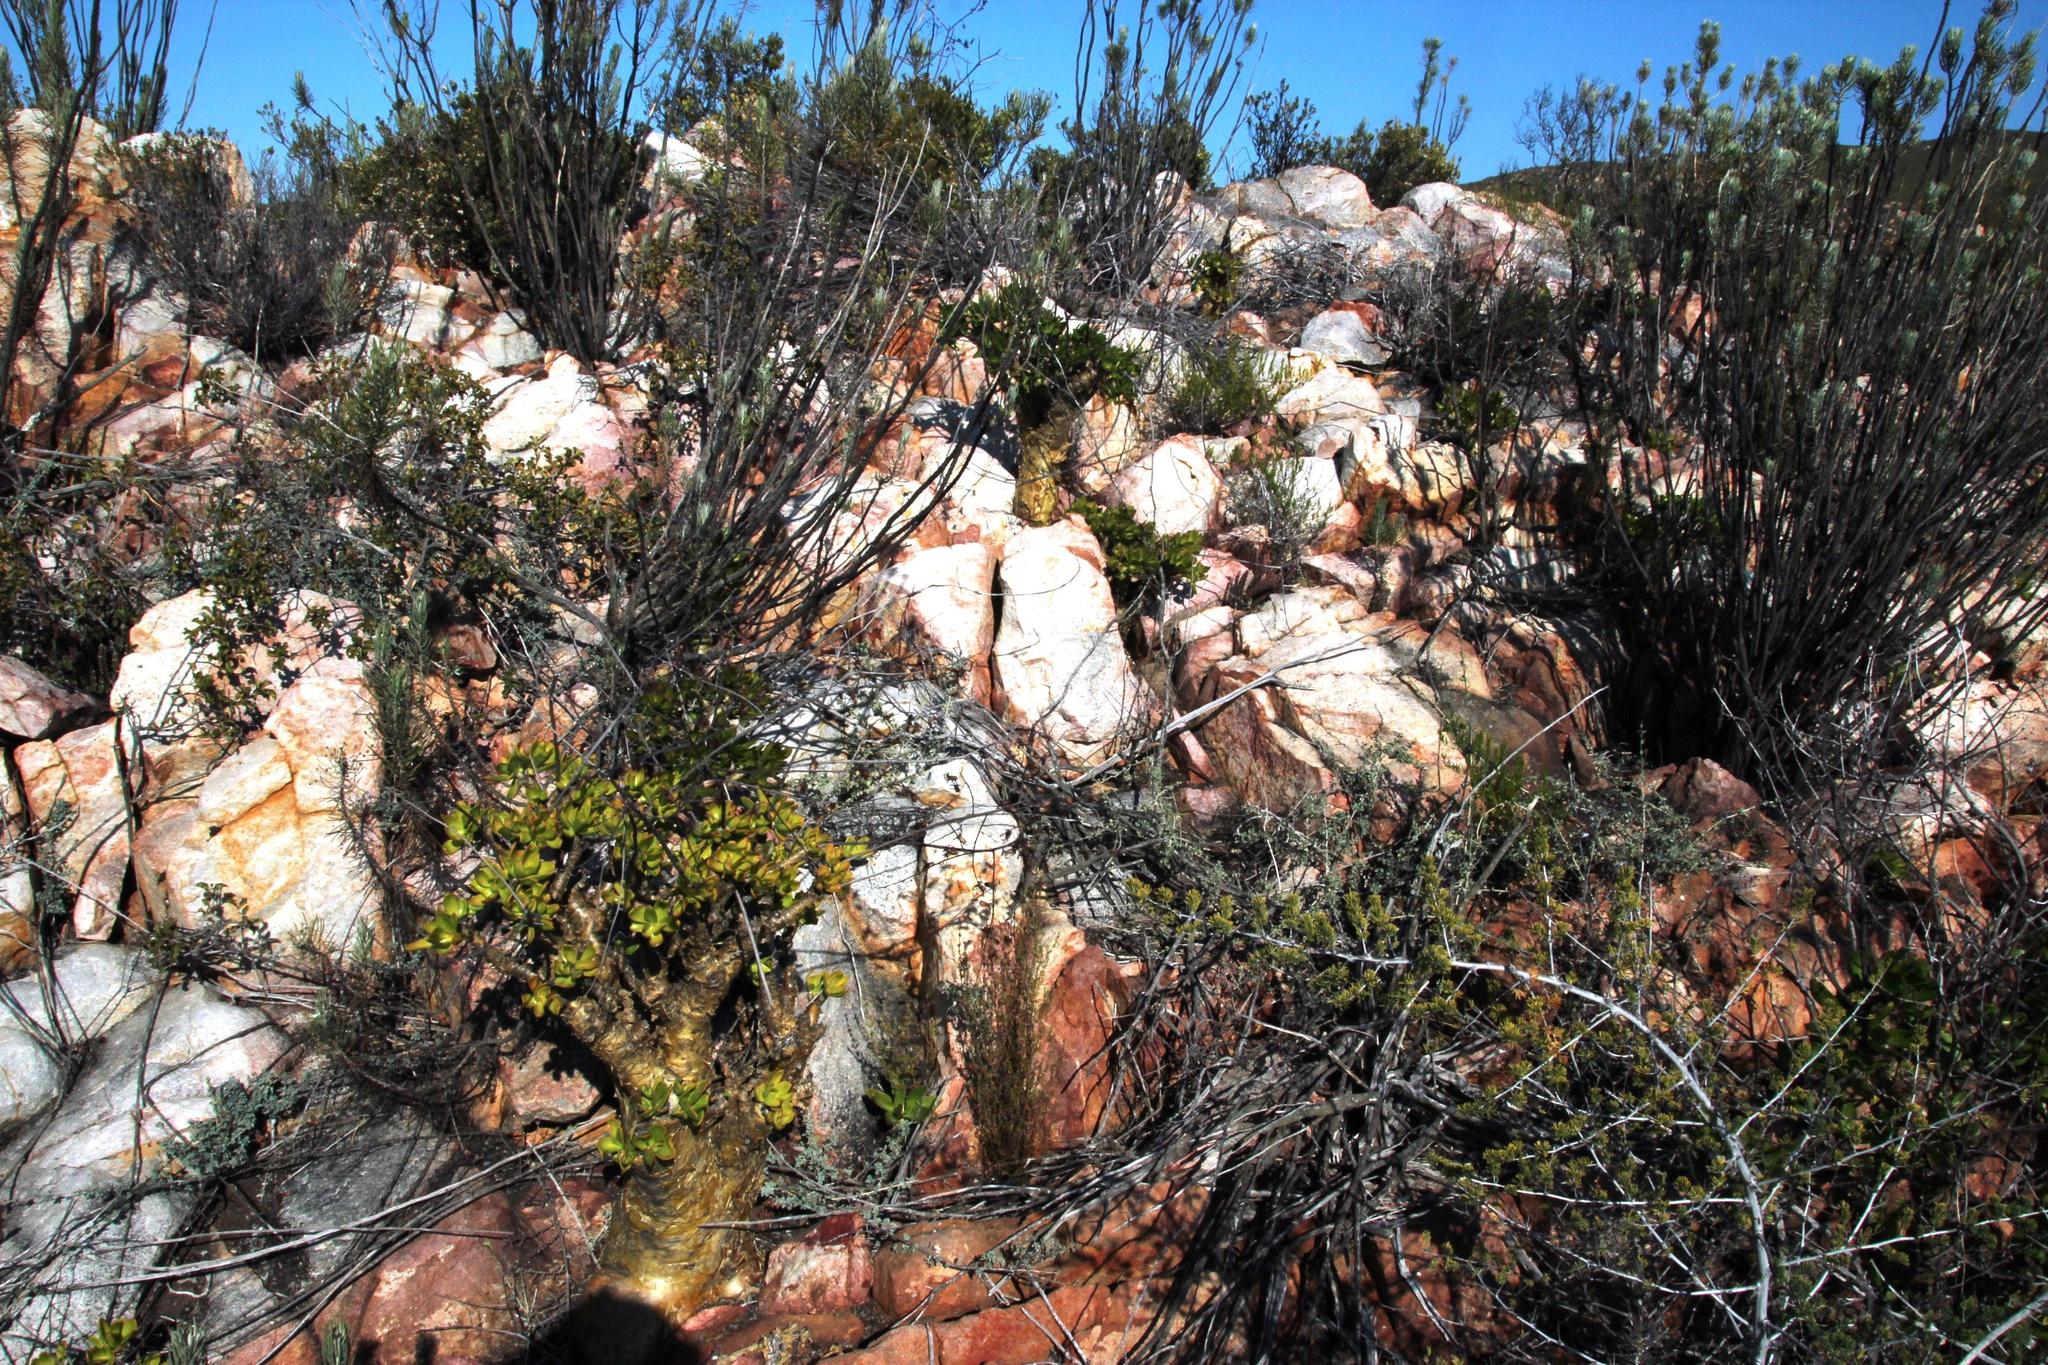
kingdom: Plantae
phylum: Tracheophyta
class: Magnoliopsida
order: Saxifragales
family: Crassulaceae
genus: Tylecodon
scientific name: Tylecodon paniculatus
